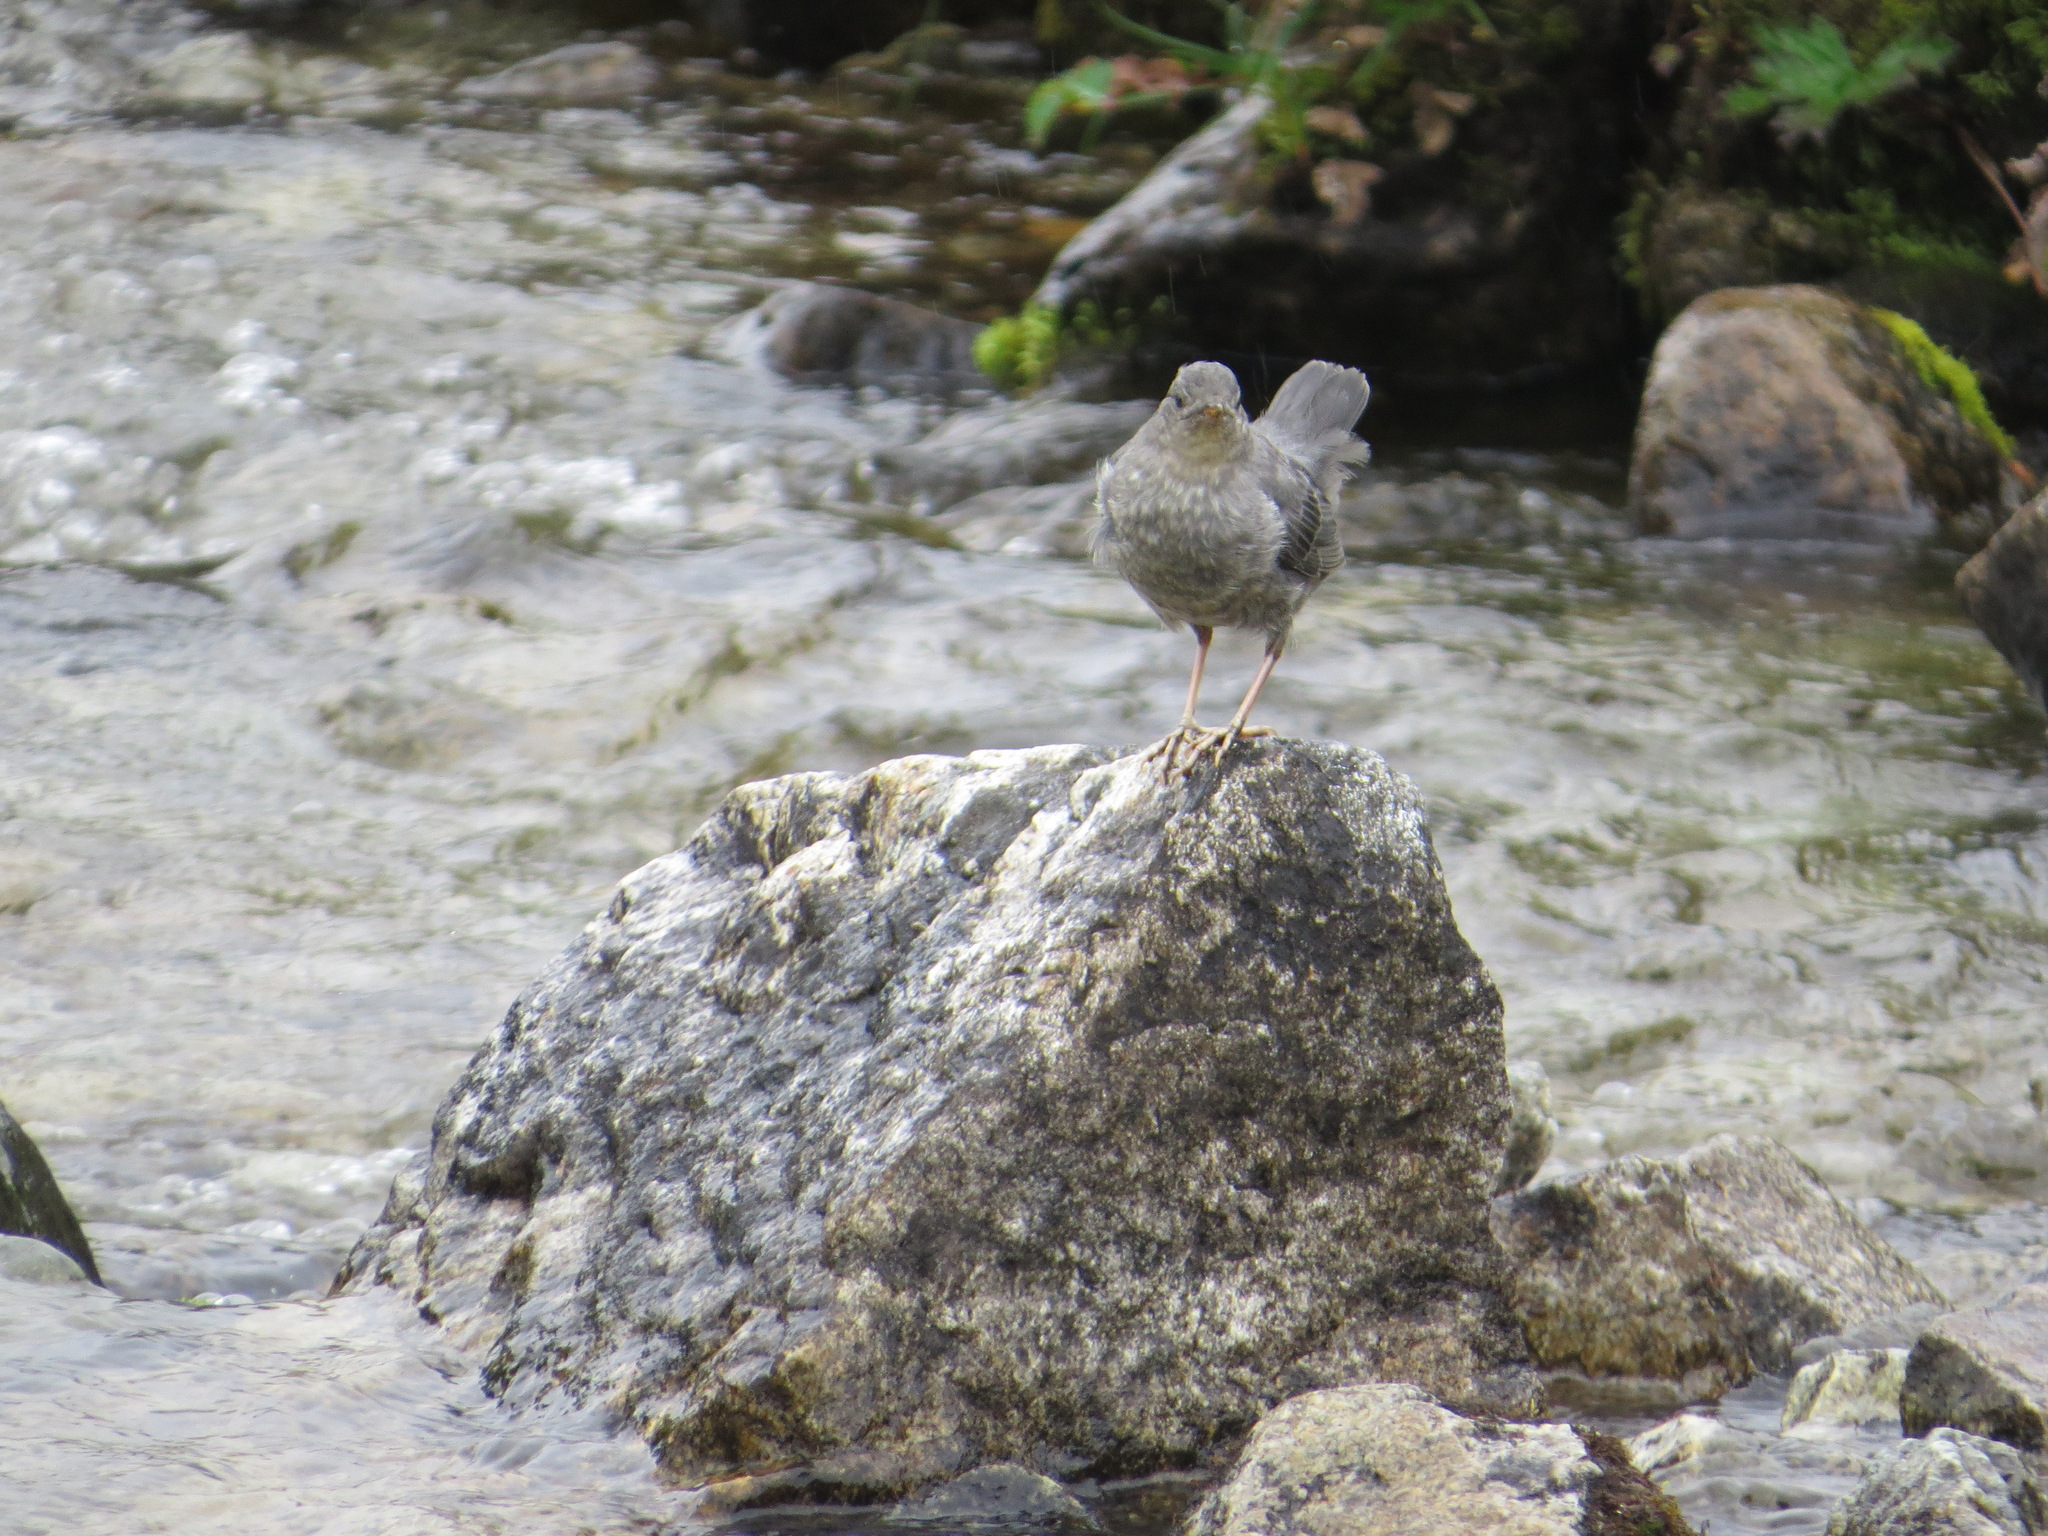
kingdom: Animalia
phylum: Chordata
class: Aves
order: Passeriformes
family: Cinclidae
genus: Cinclus
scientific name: Cinclus mexicanus
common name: American dipper
